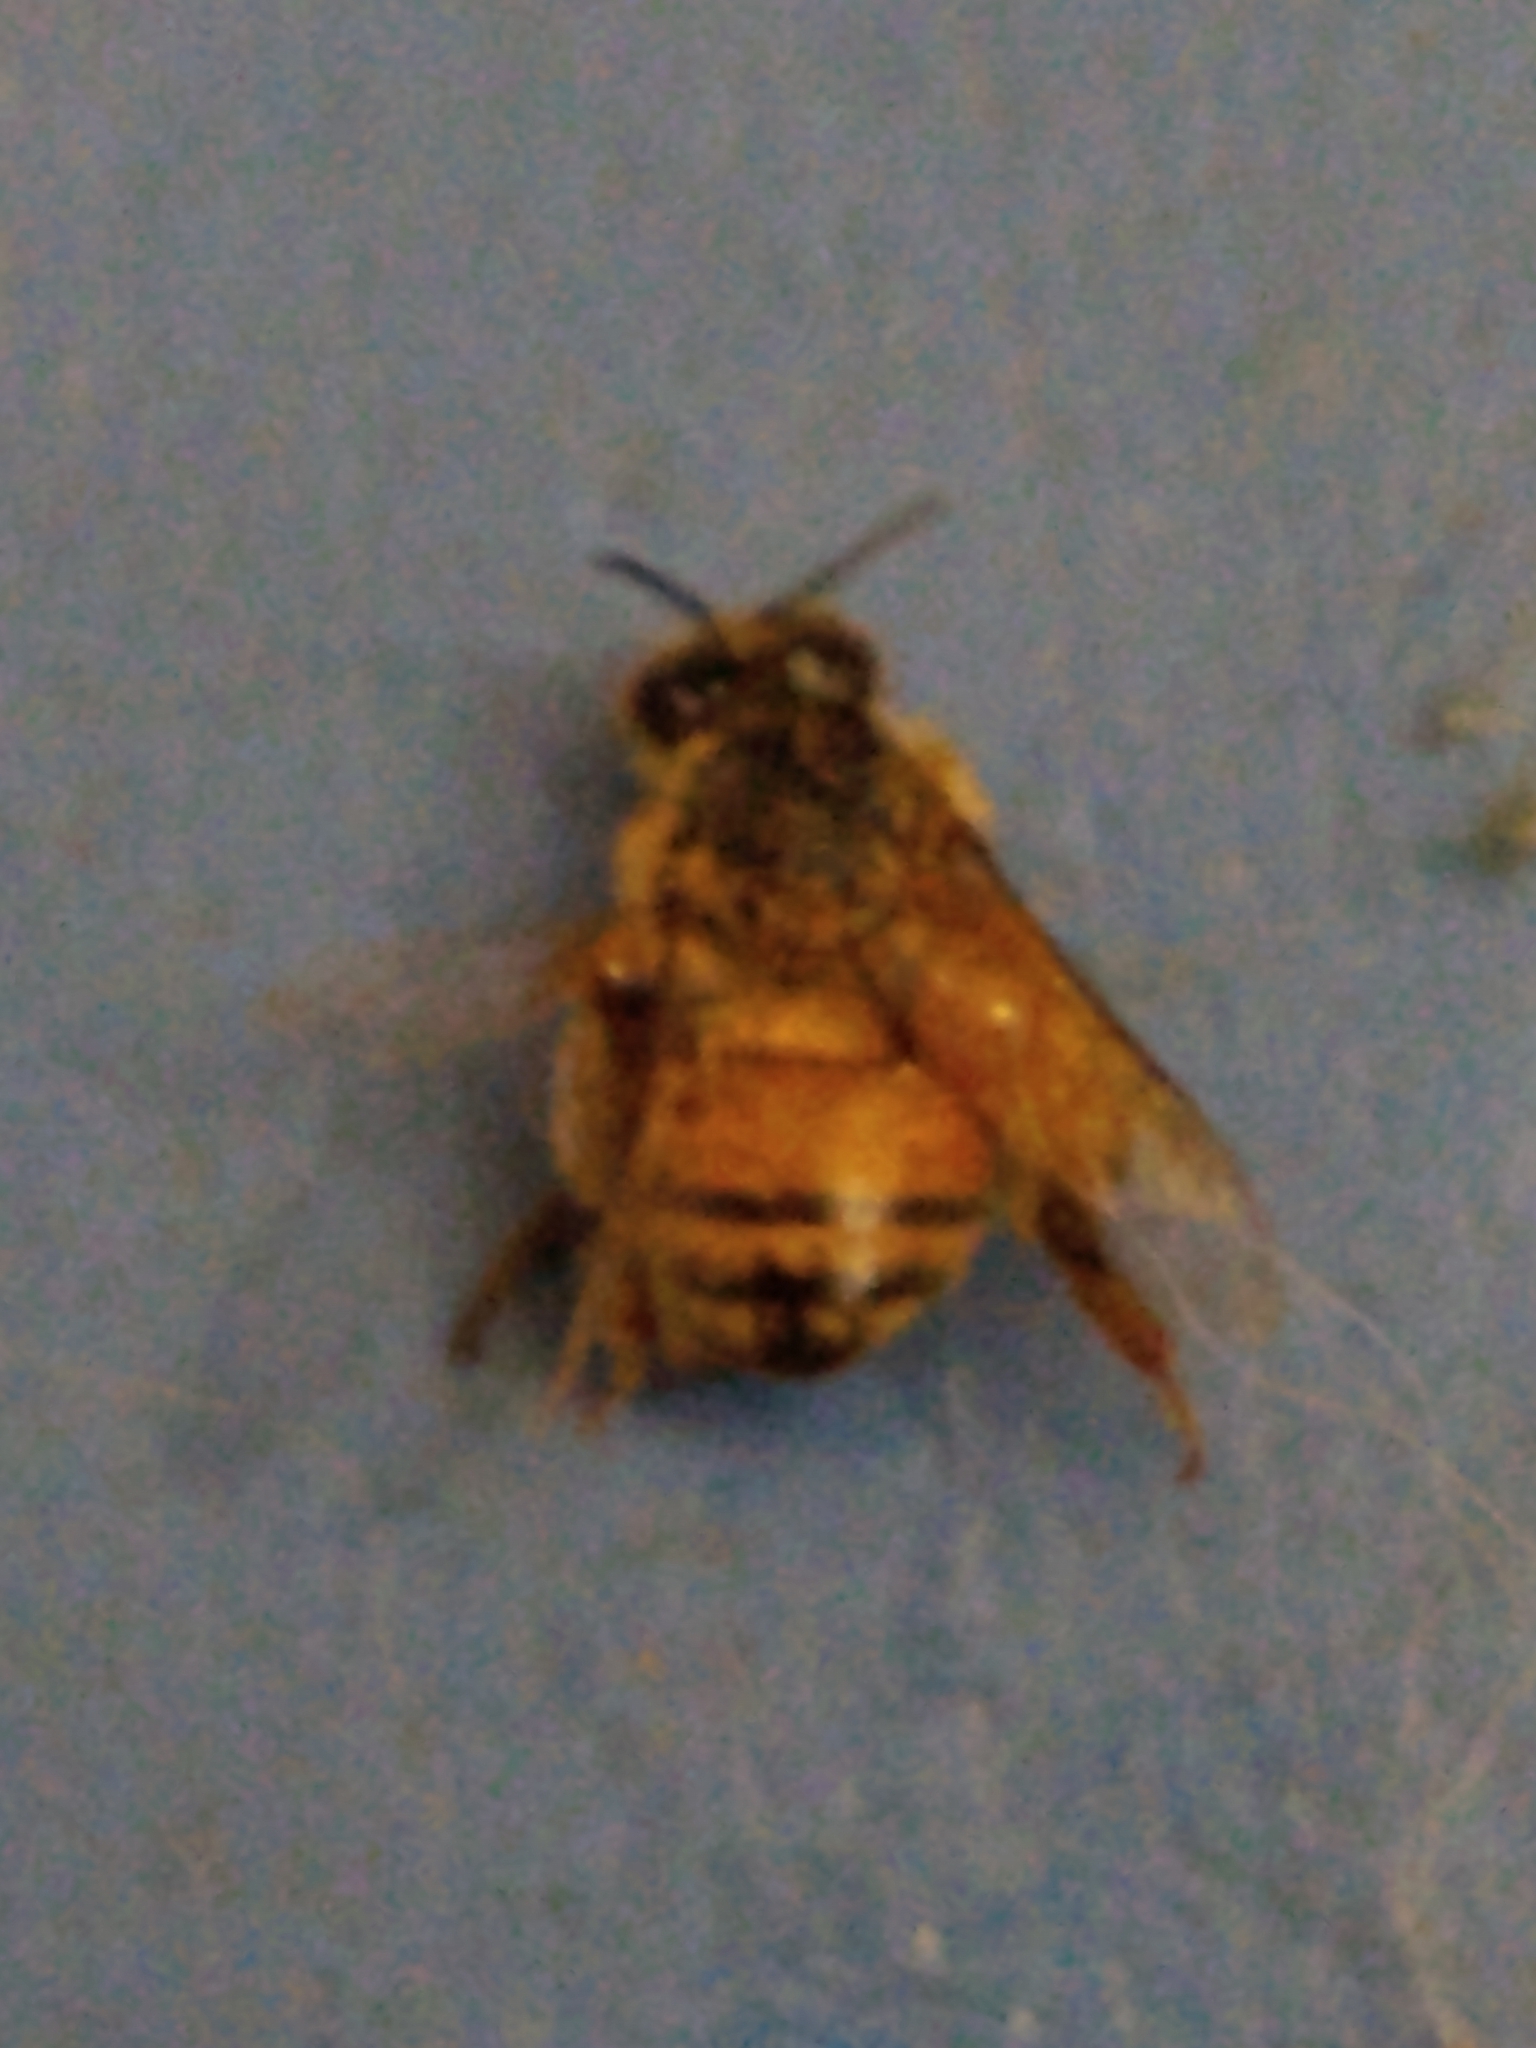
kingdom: Animalia
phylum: Arthropoda
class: Insecta
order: Hymenoptera
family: Apidae
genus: Apis
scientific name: Apis mellifera
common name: Honey bee
